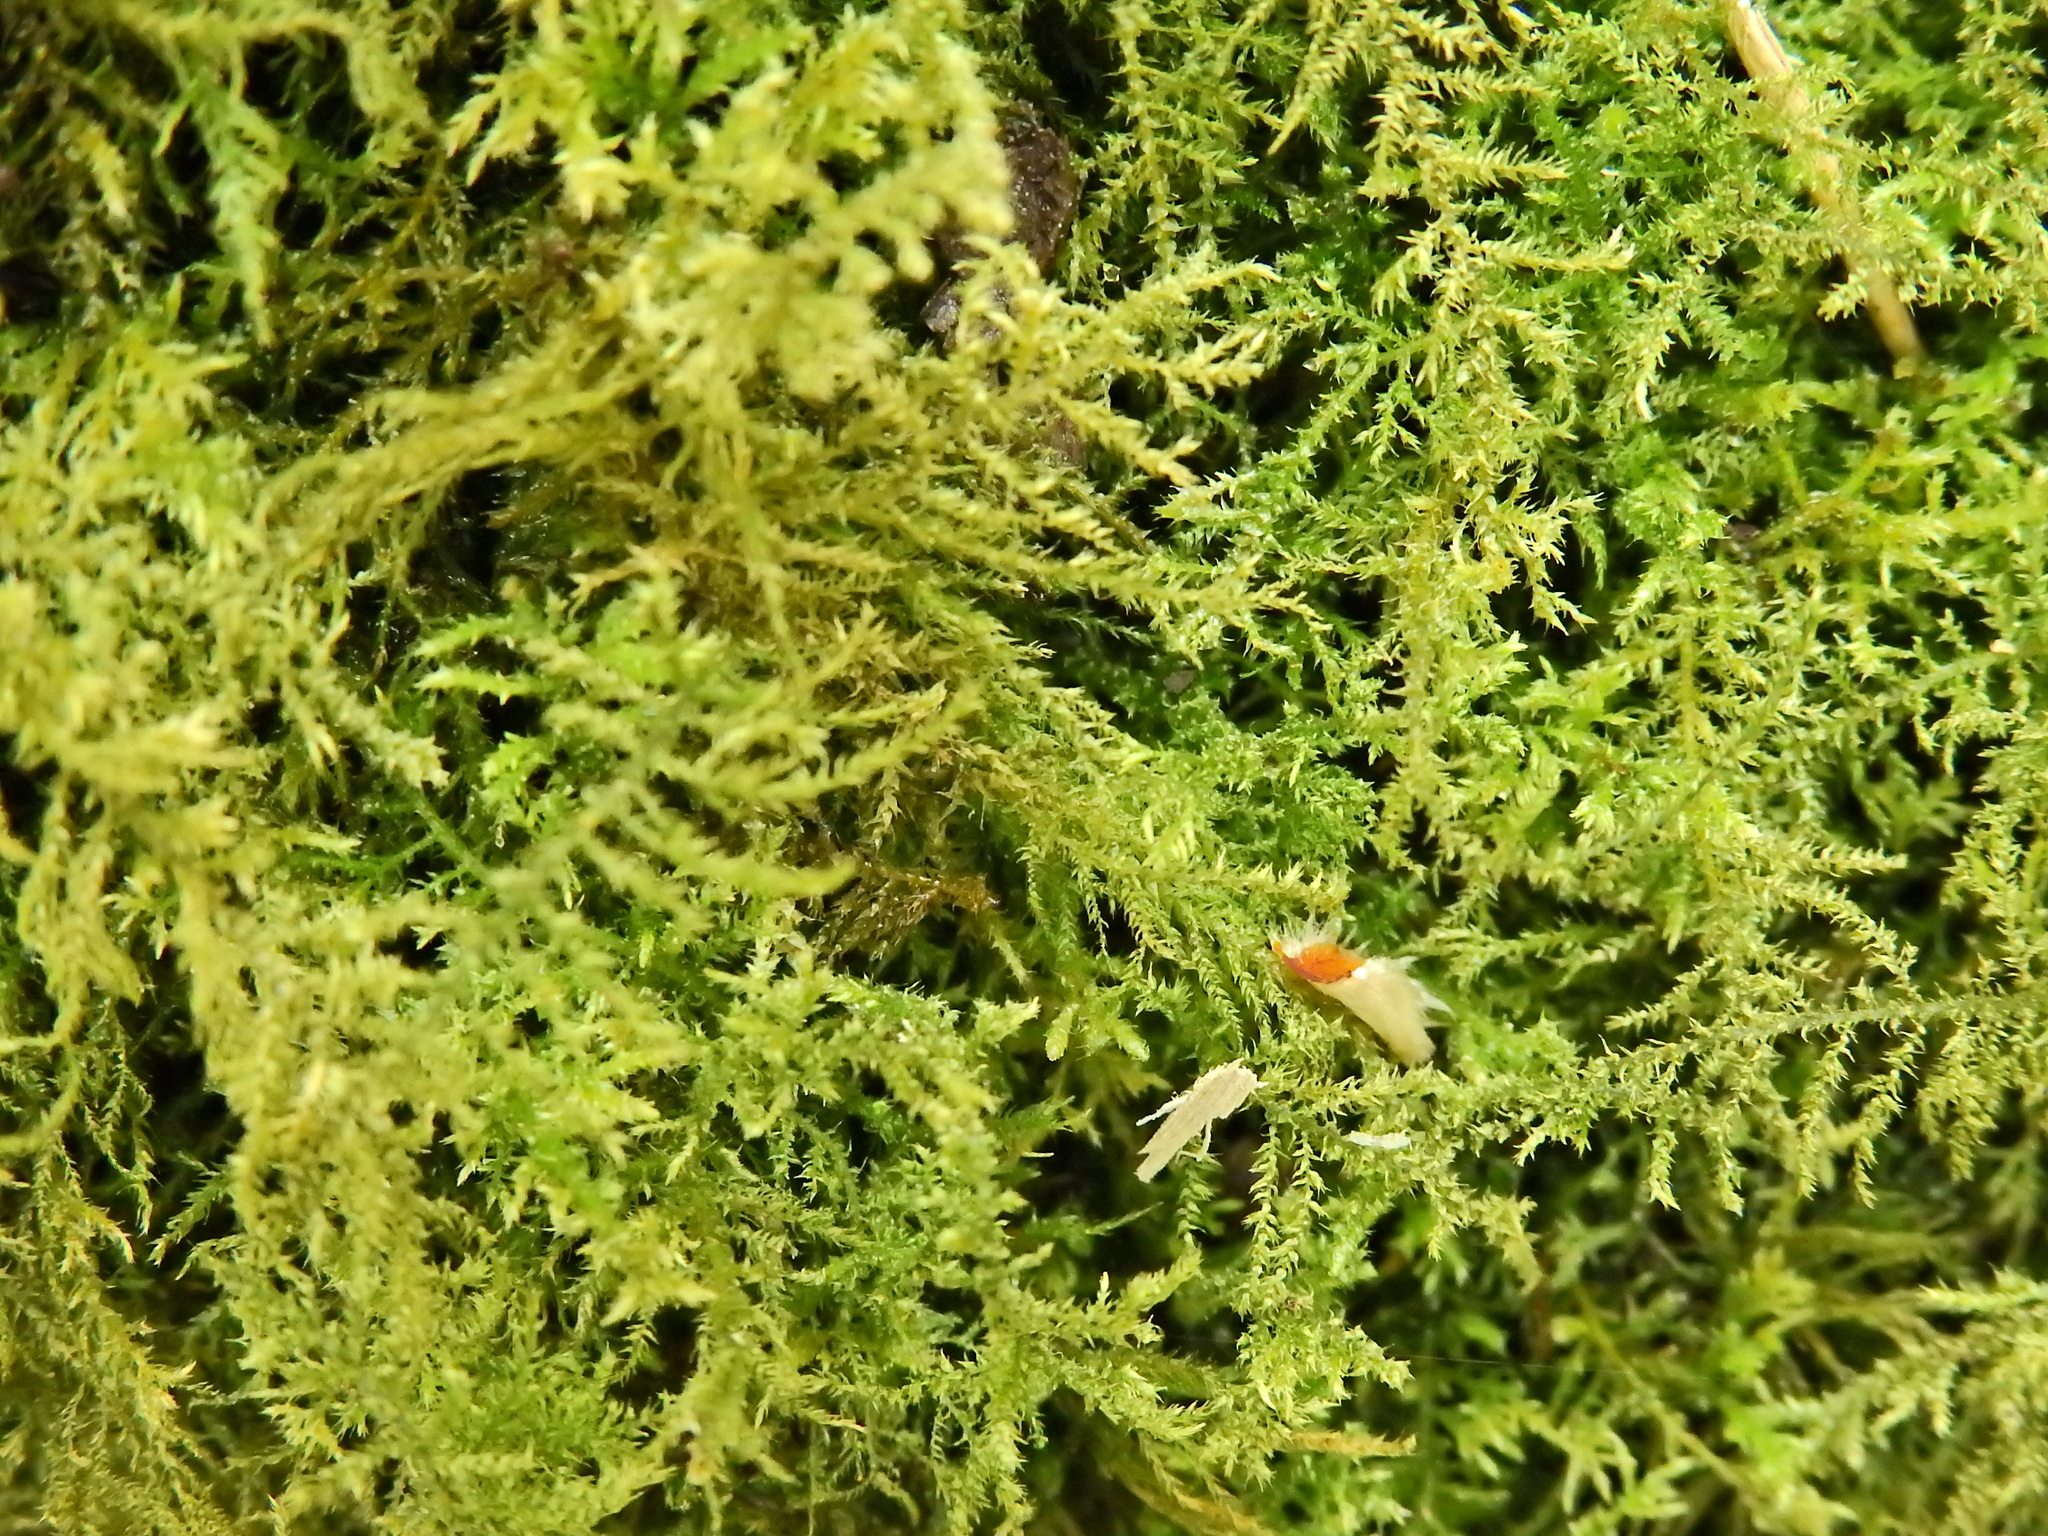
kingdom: Plantae
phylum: Bryophyta
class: Bryopsida
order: Hypnales
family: Brachytheciaceae
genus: Kindbergia
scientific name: Kindbergia praelonga
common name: Slender beaked moss
